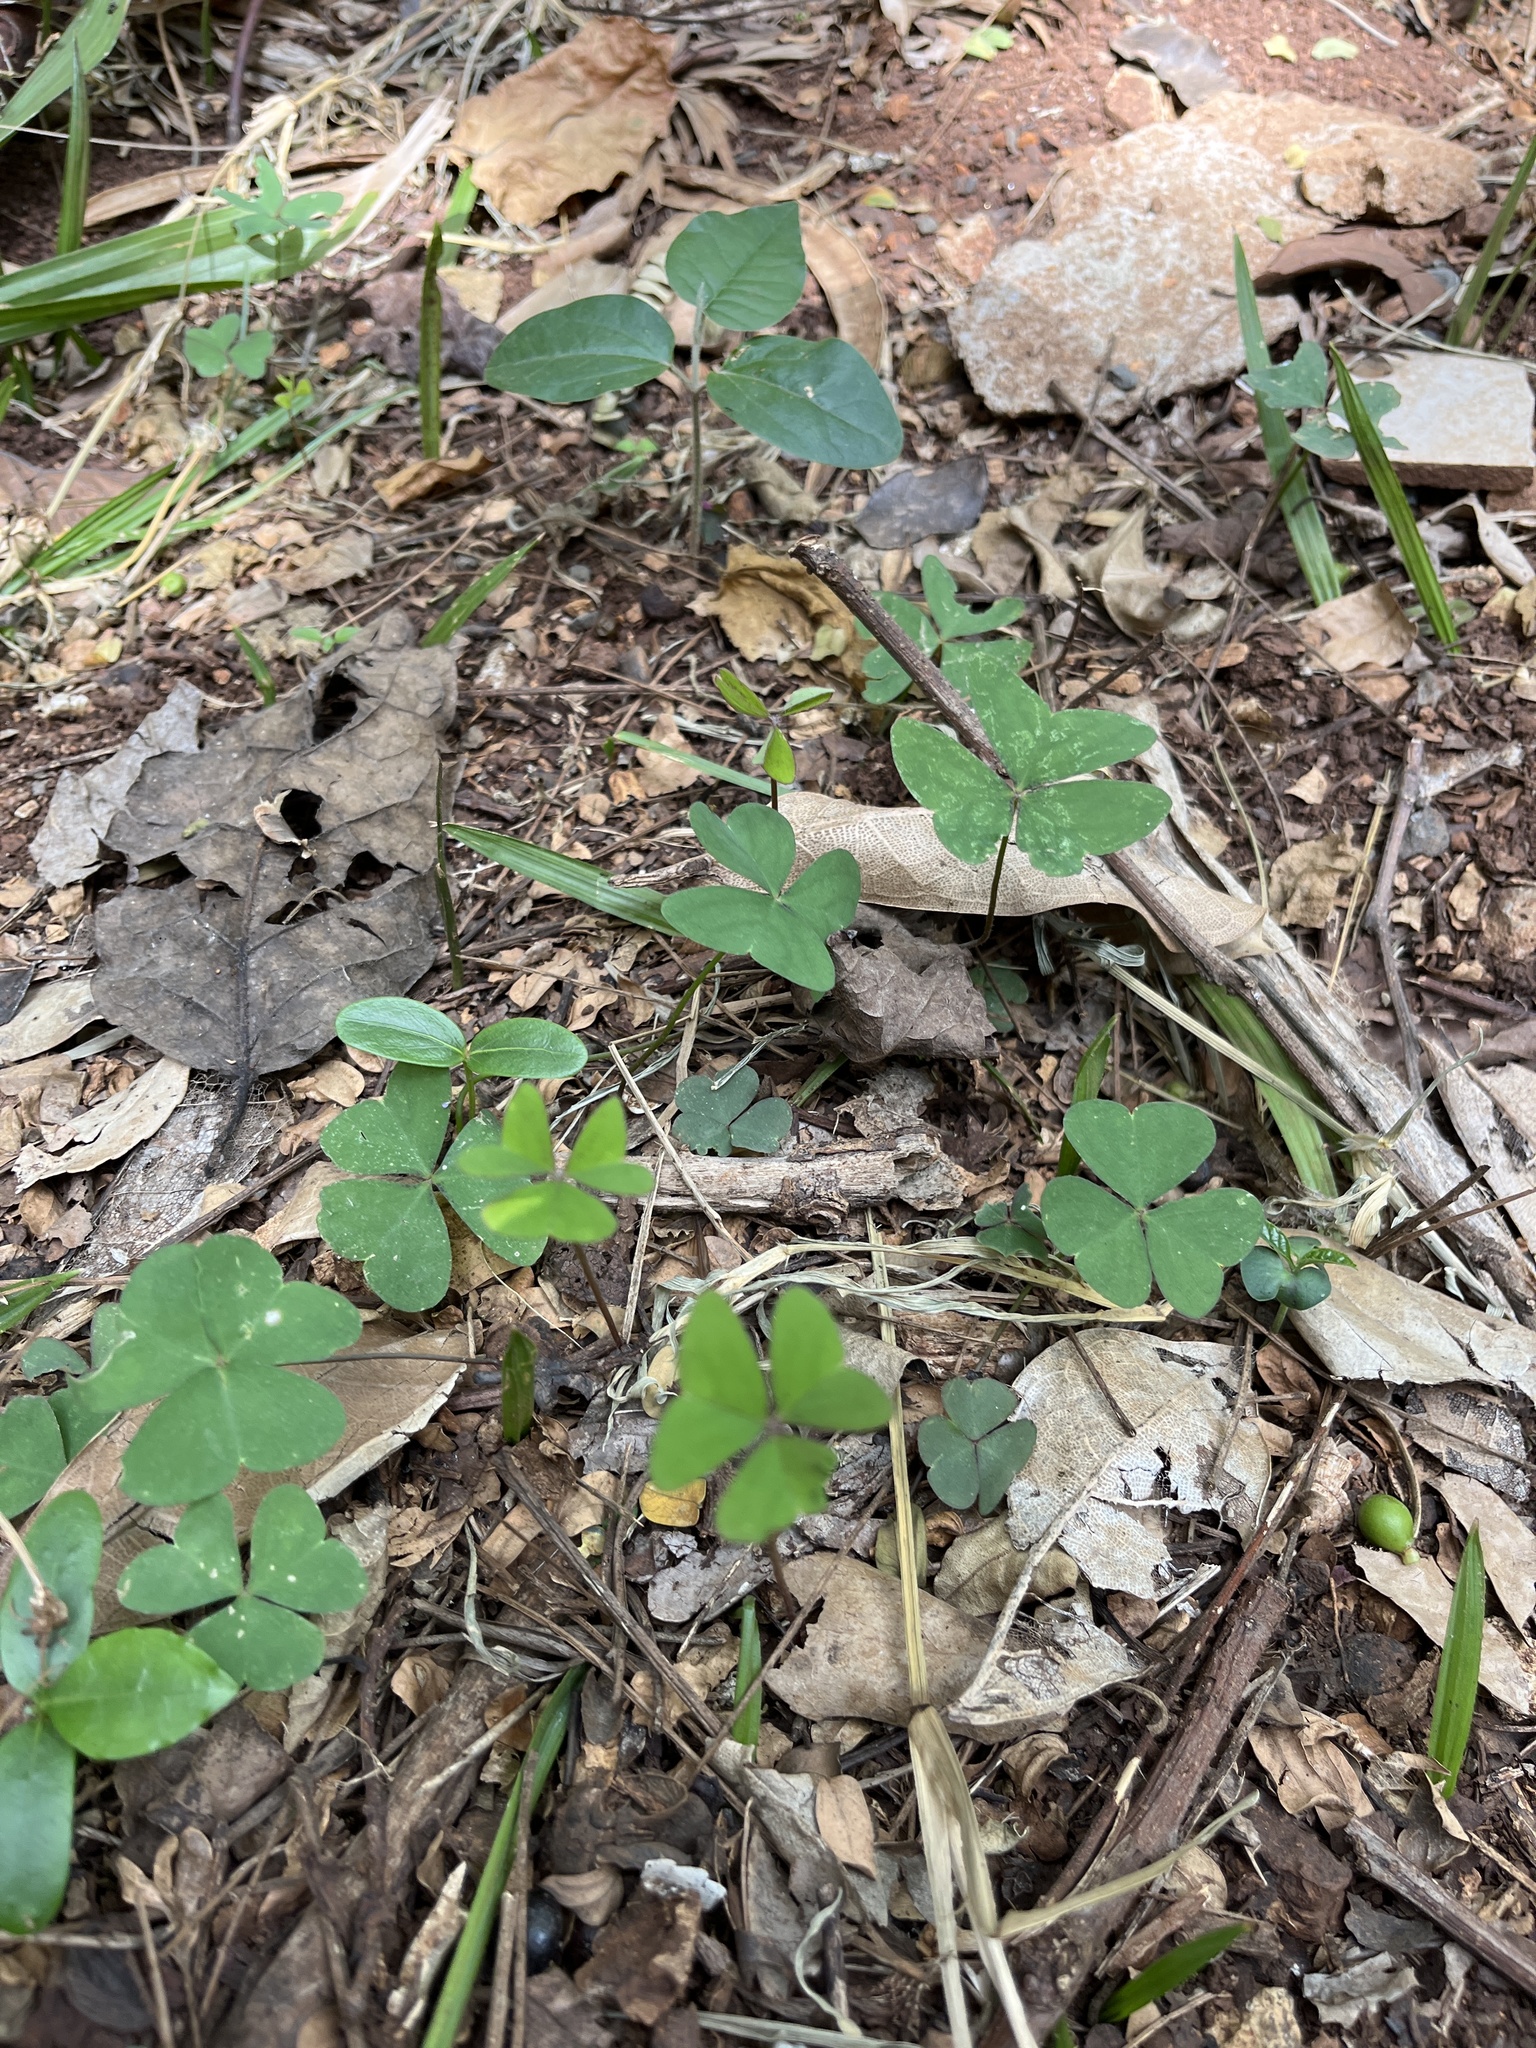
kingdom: Plantae
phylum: Tracheophyta
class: Magnoliopsida
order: Oxalidales
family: Oxalidaceae
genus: Oxalis
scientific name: Oxalis corniculata
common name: Procumbent yellow-sorrel
